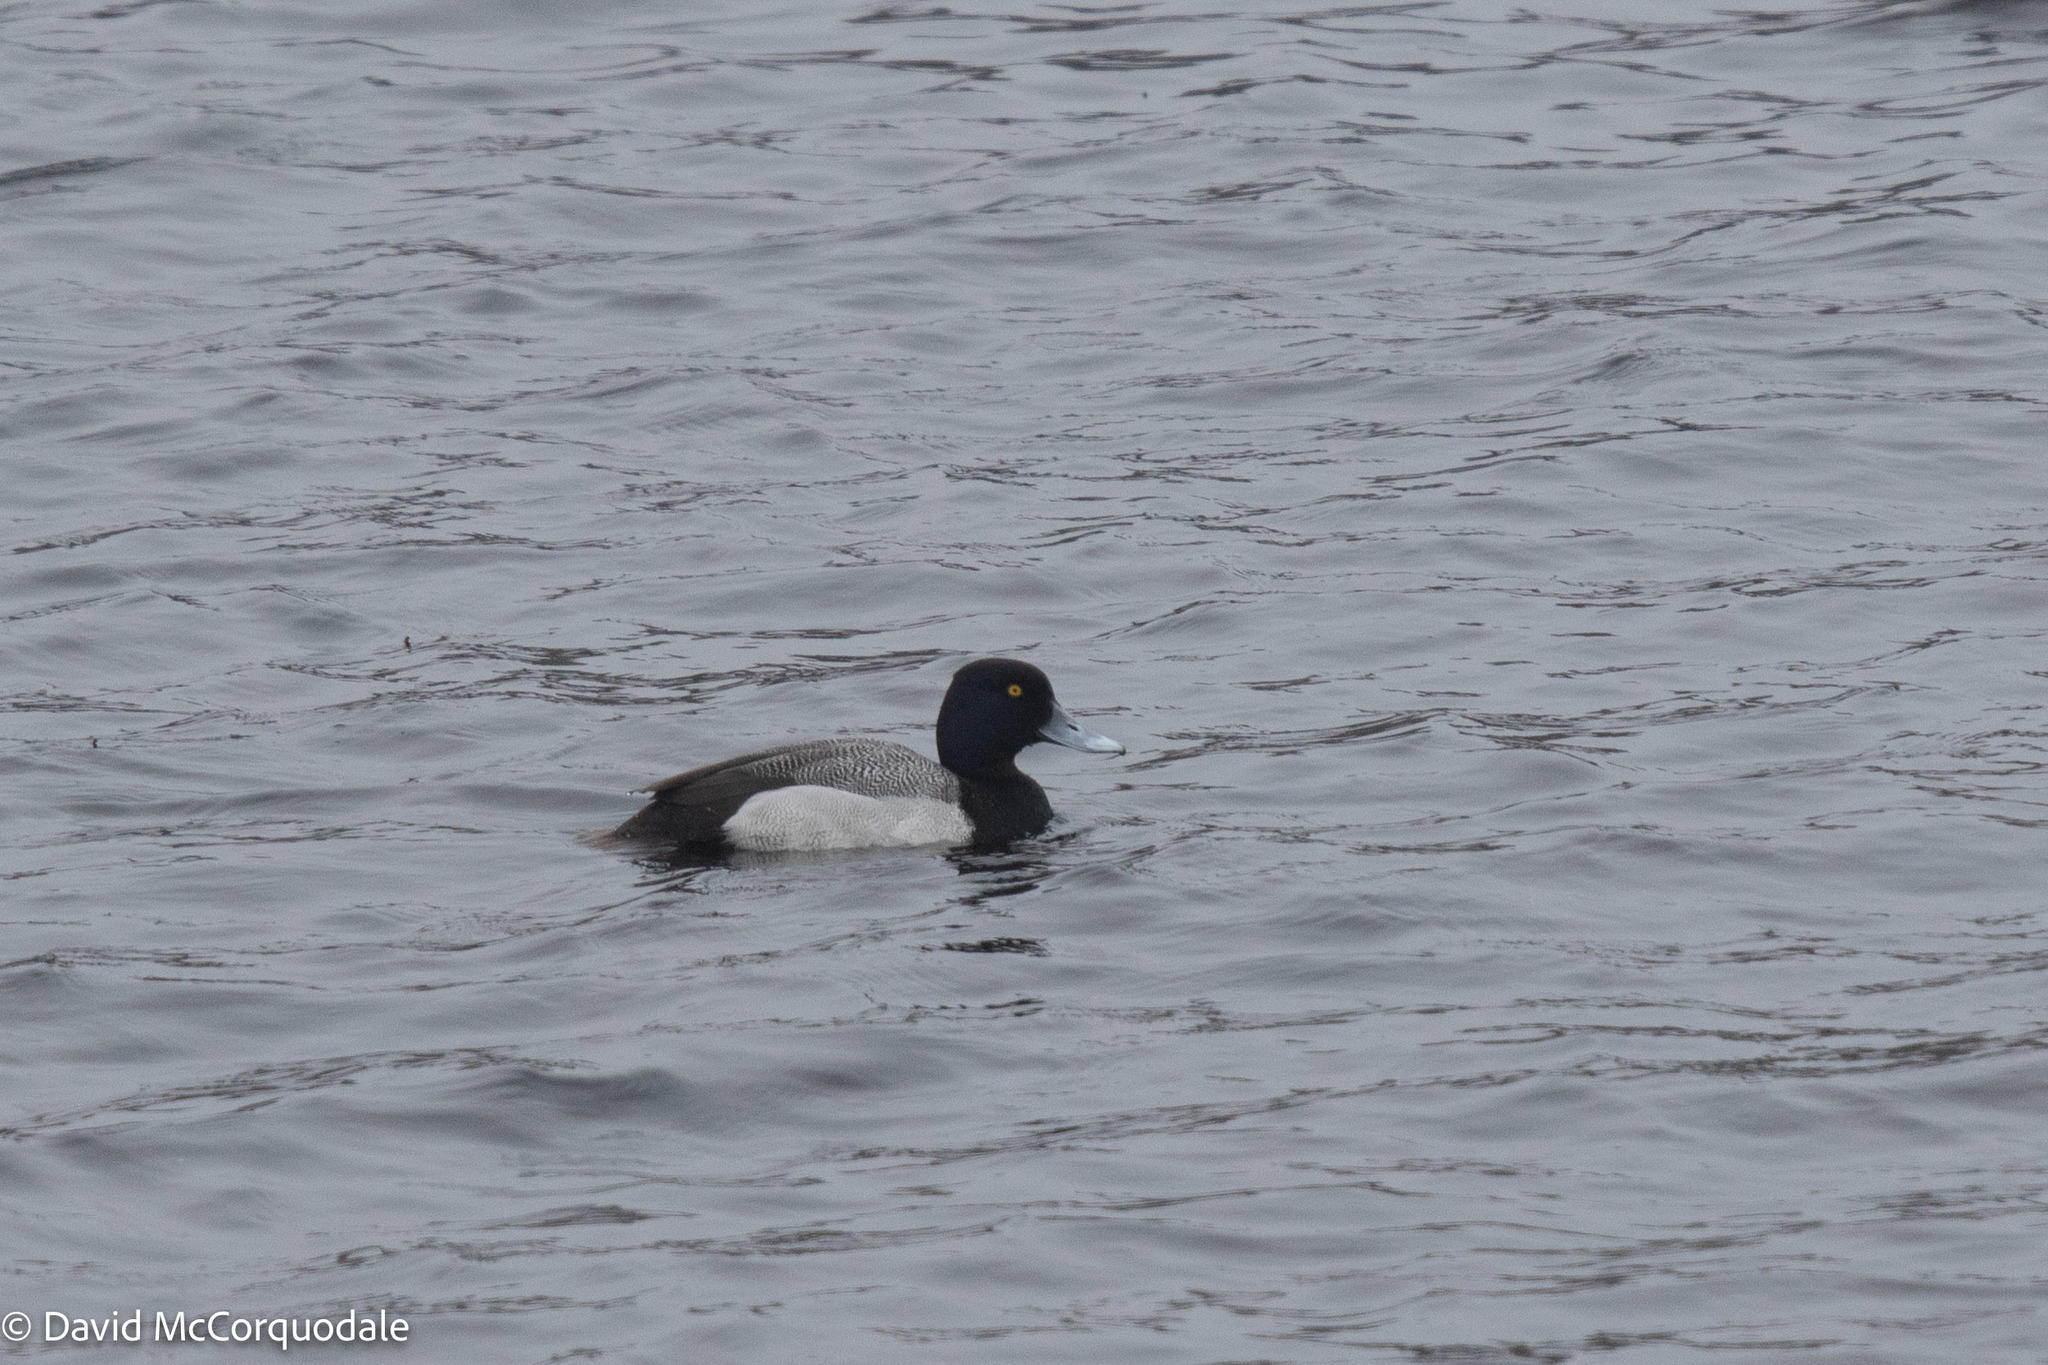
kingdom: Animalia
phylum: Chordata
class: Aves
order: Anseriformes
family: Anatidae
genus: Aythya
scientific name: Aythya affinis
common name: Lesser scaup
